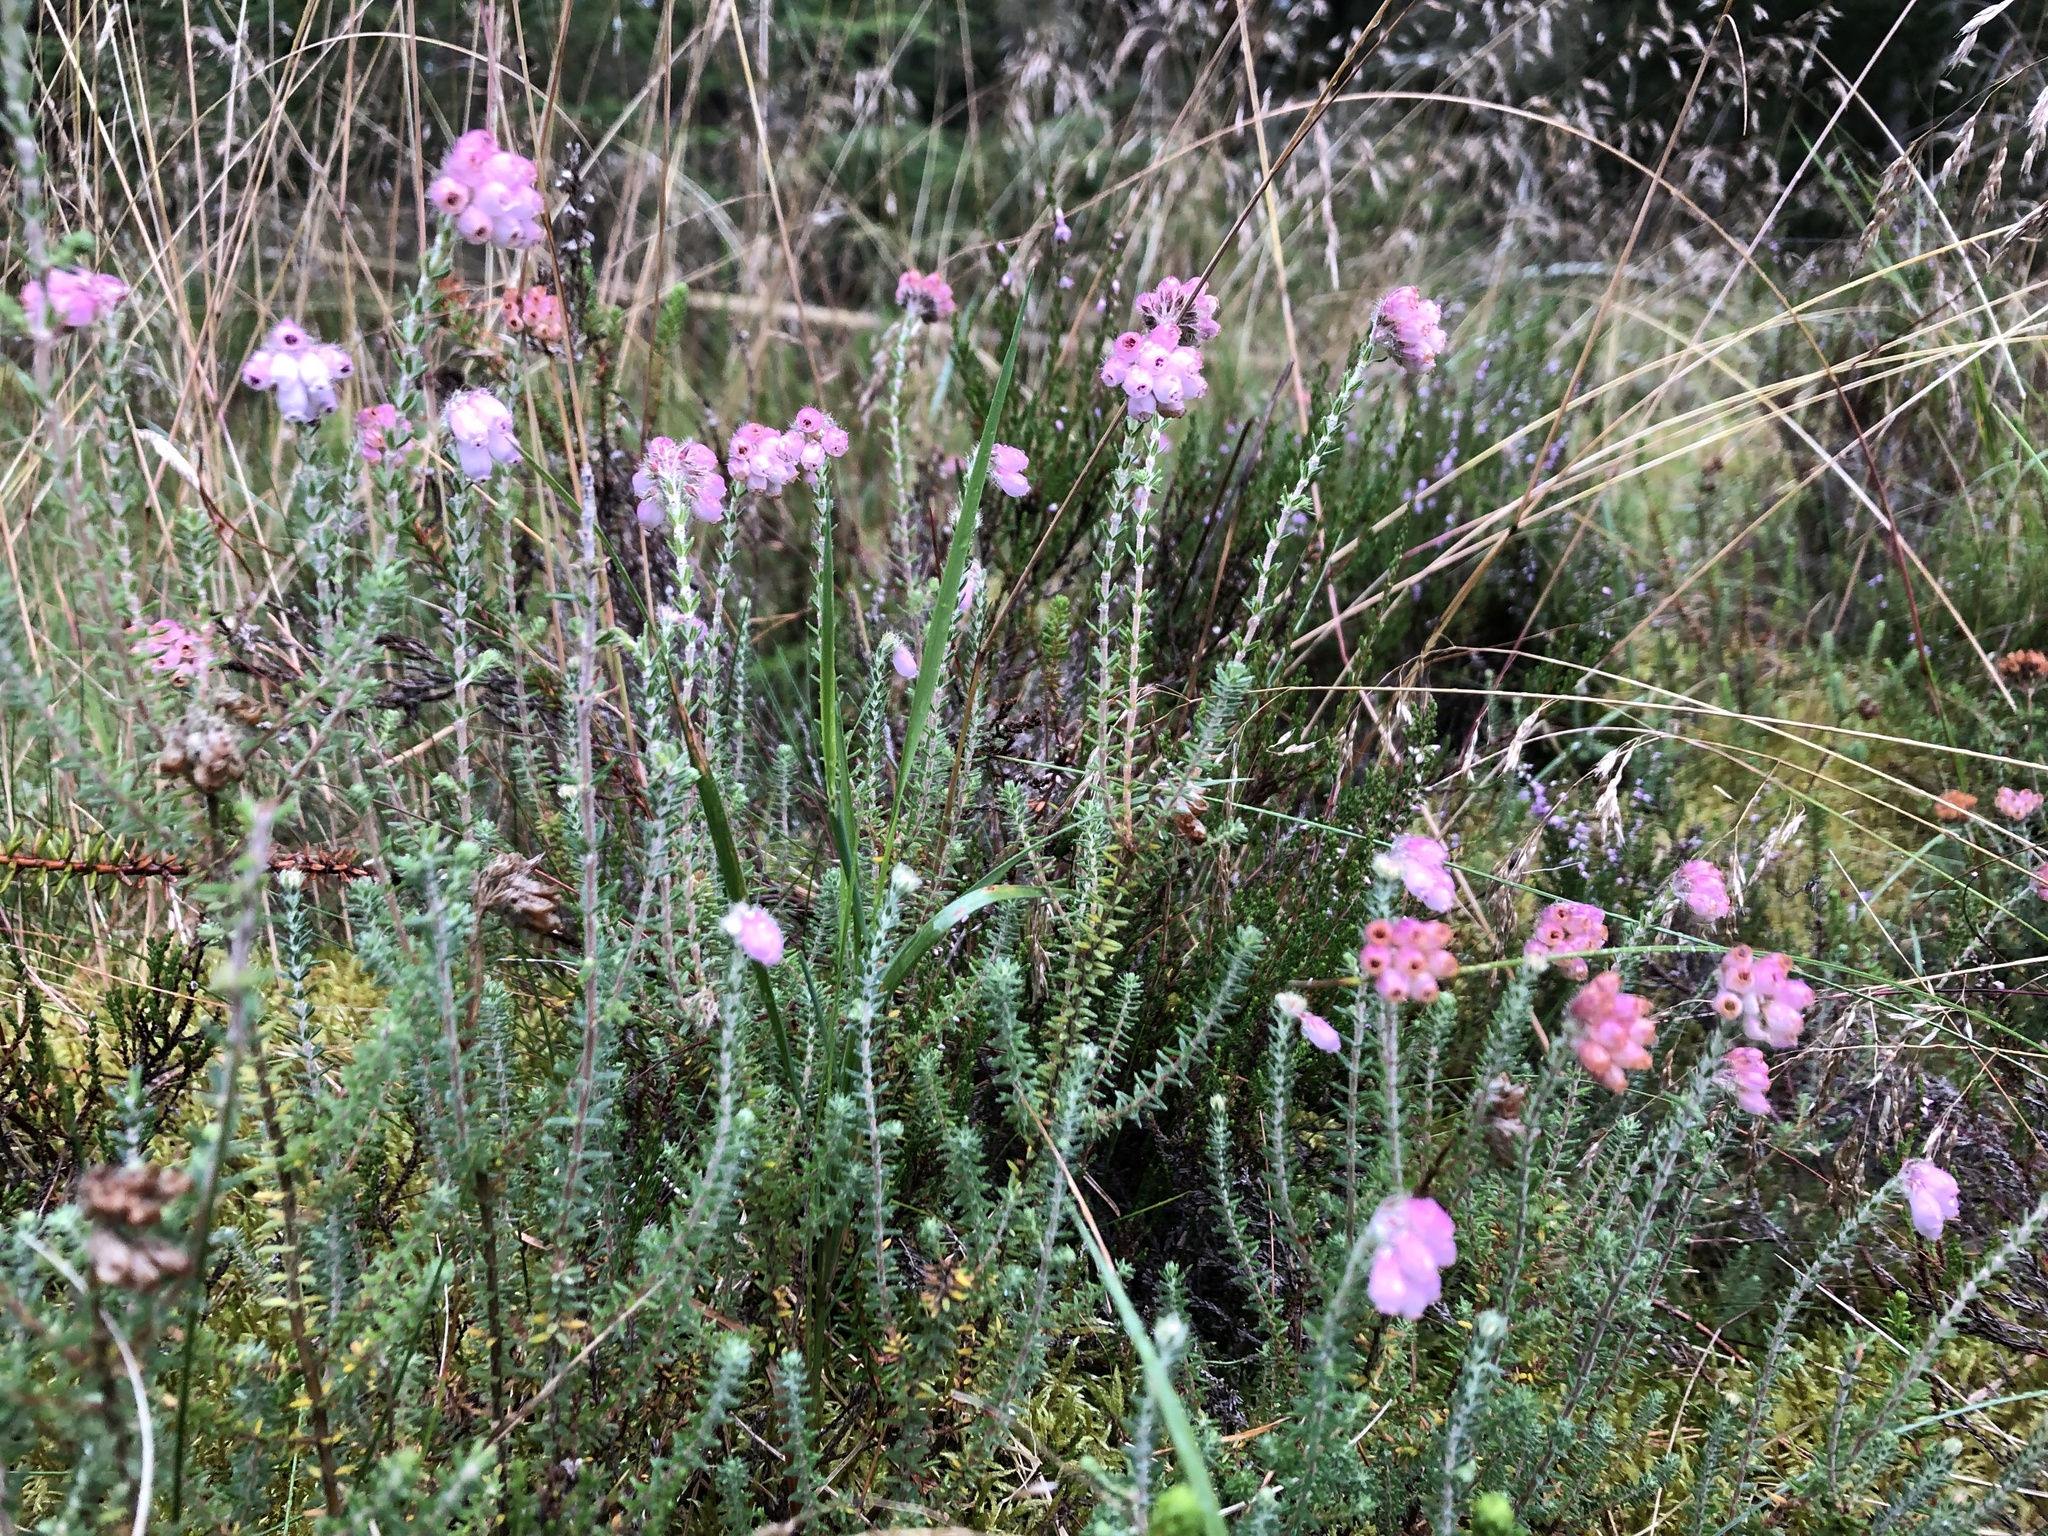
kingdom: Plantae
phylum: Tracheophyta
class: Magnoliopsida
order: Ericales
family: Ericaceae
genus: Erica
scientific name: Erica tetralix
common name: Cross-leaved heath
